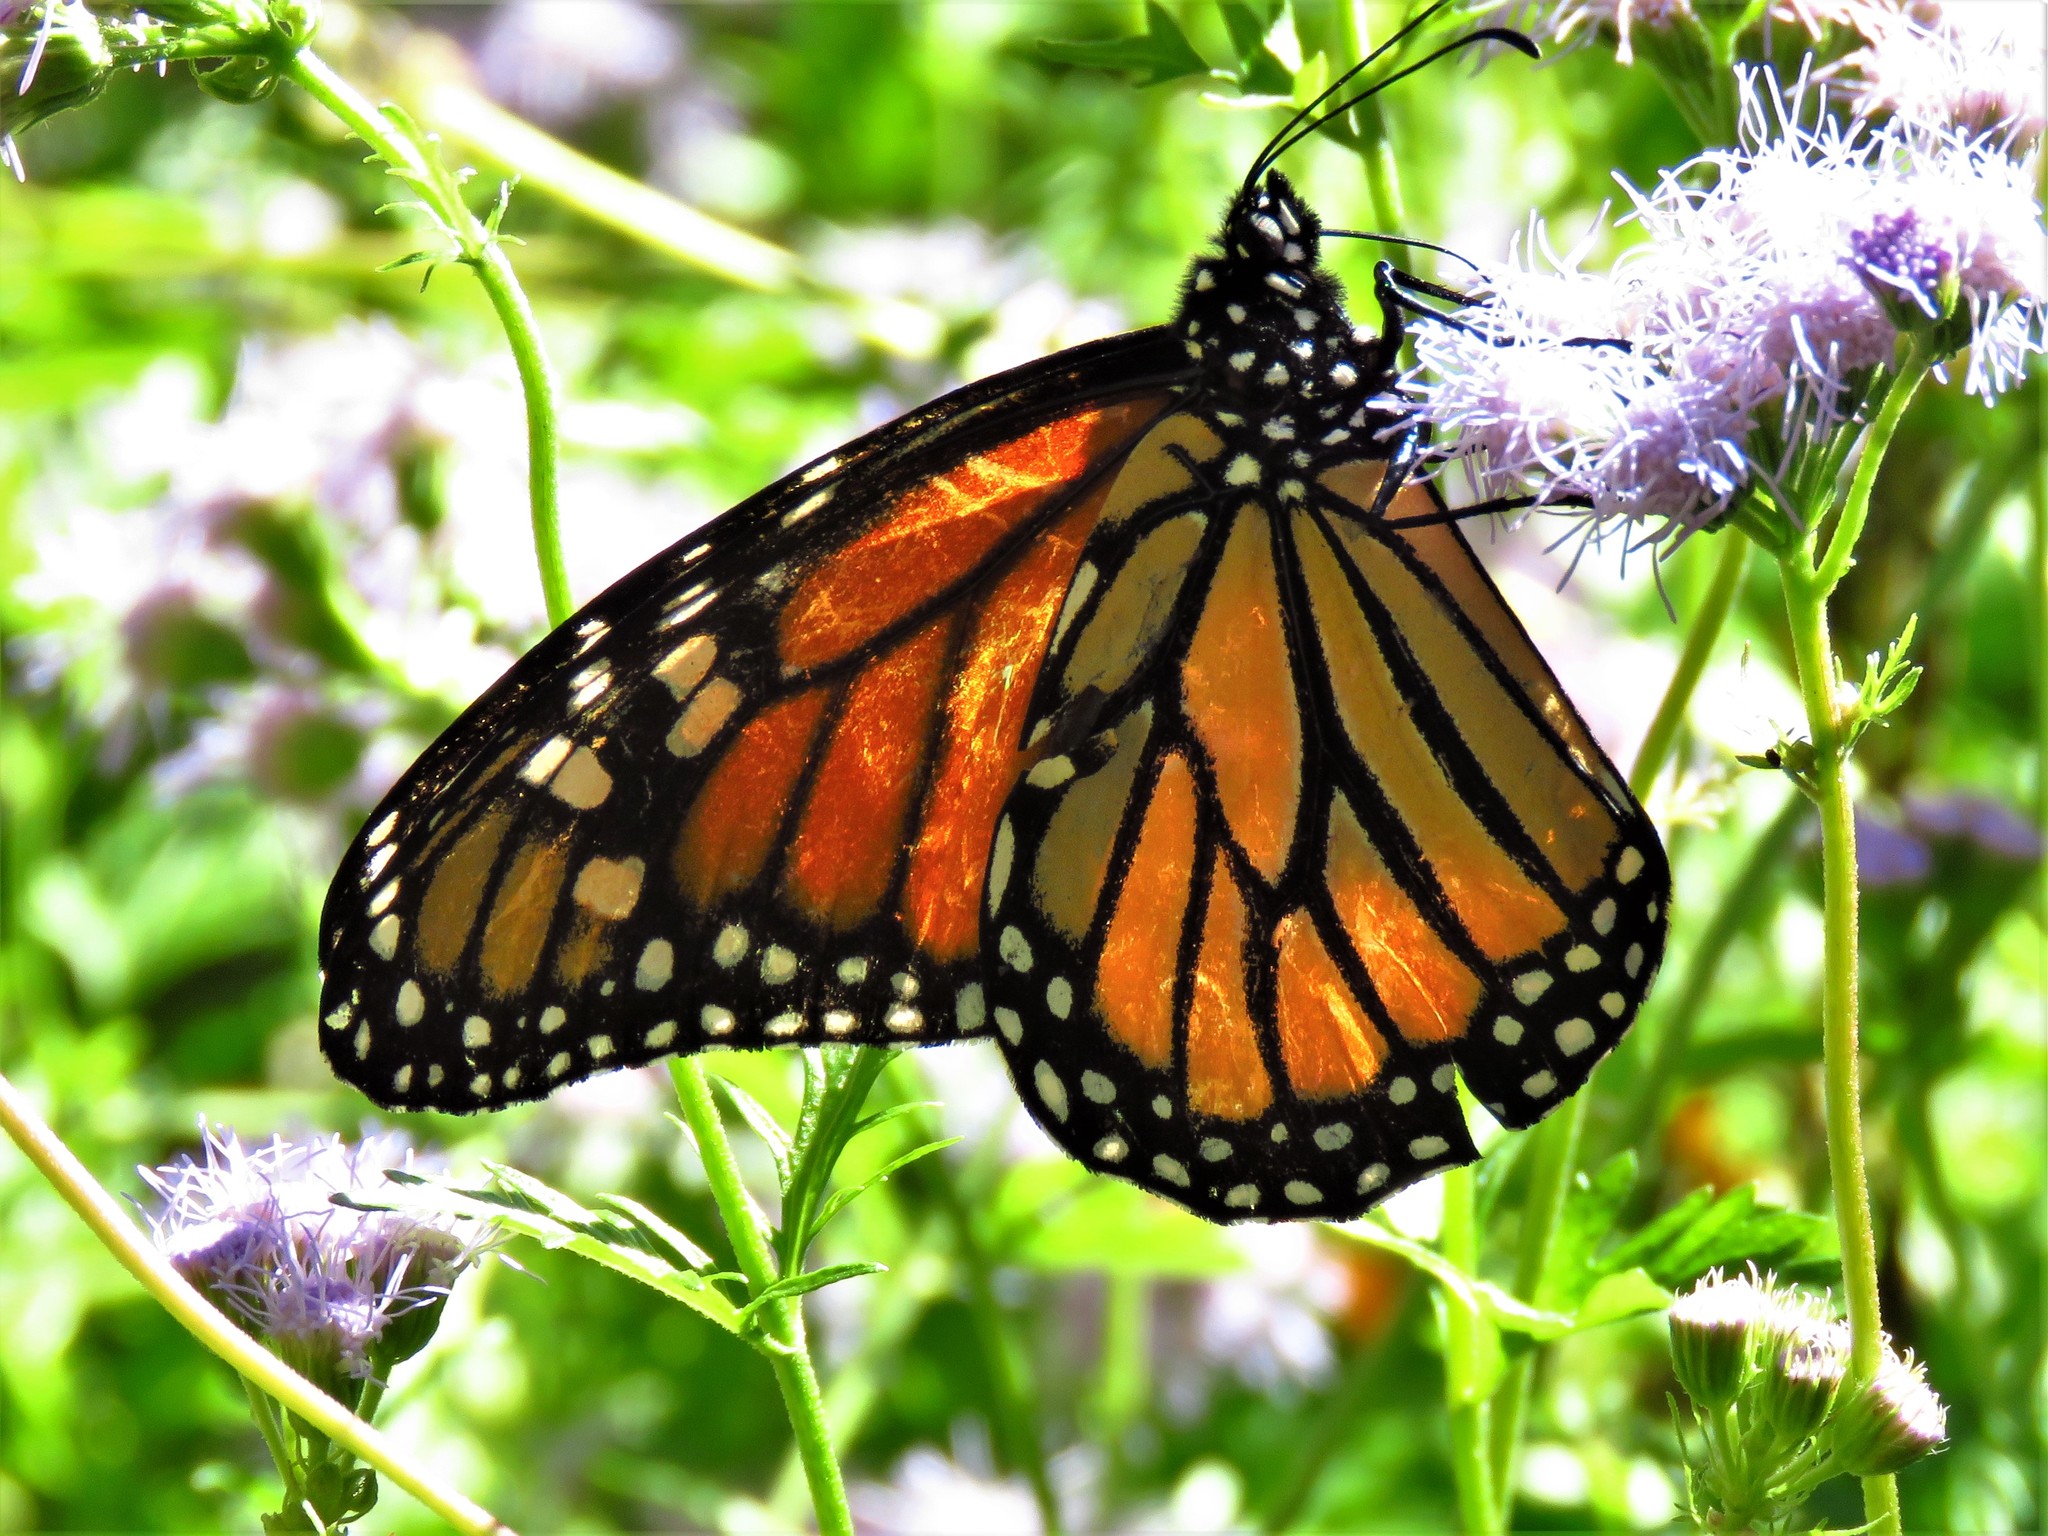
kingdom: Animalia
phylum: Arthropoda
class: Insecta
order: Lepidoptera
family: Nymphalidae
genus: Danaus
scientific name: Danaus plexippus
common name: Monarch
